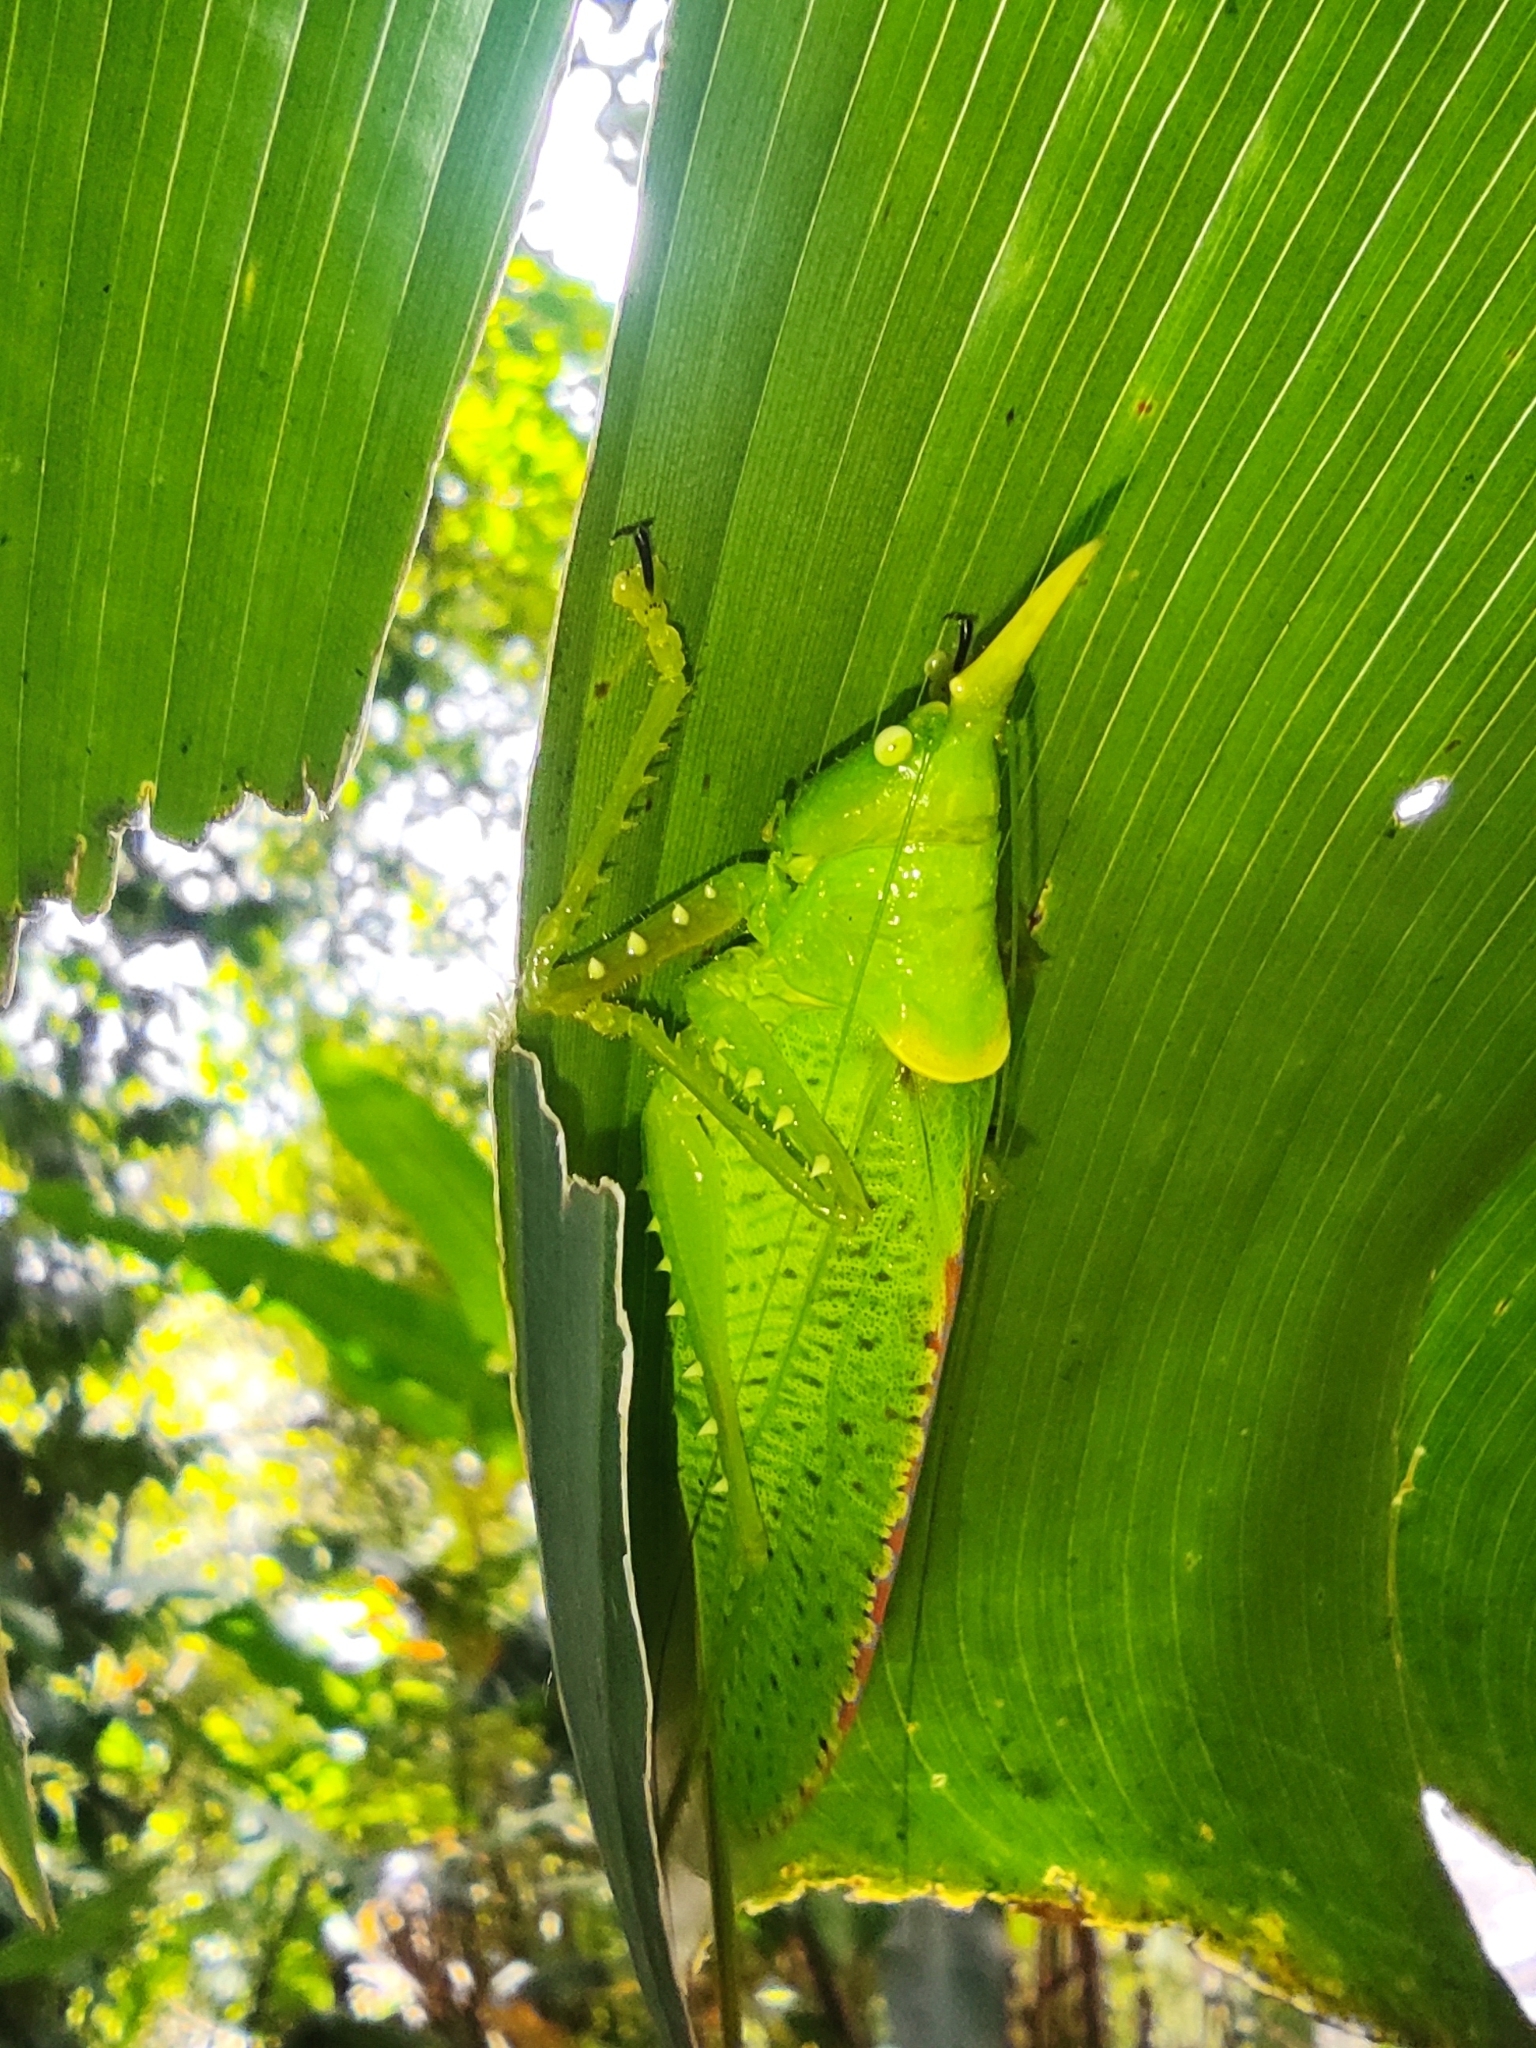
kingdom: Animalia
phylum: Arthropoda
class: Insecta
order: Orthoptera
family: Tettigoniidae
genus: Copiphora
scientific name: Copiphora rhinoceros
